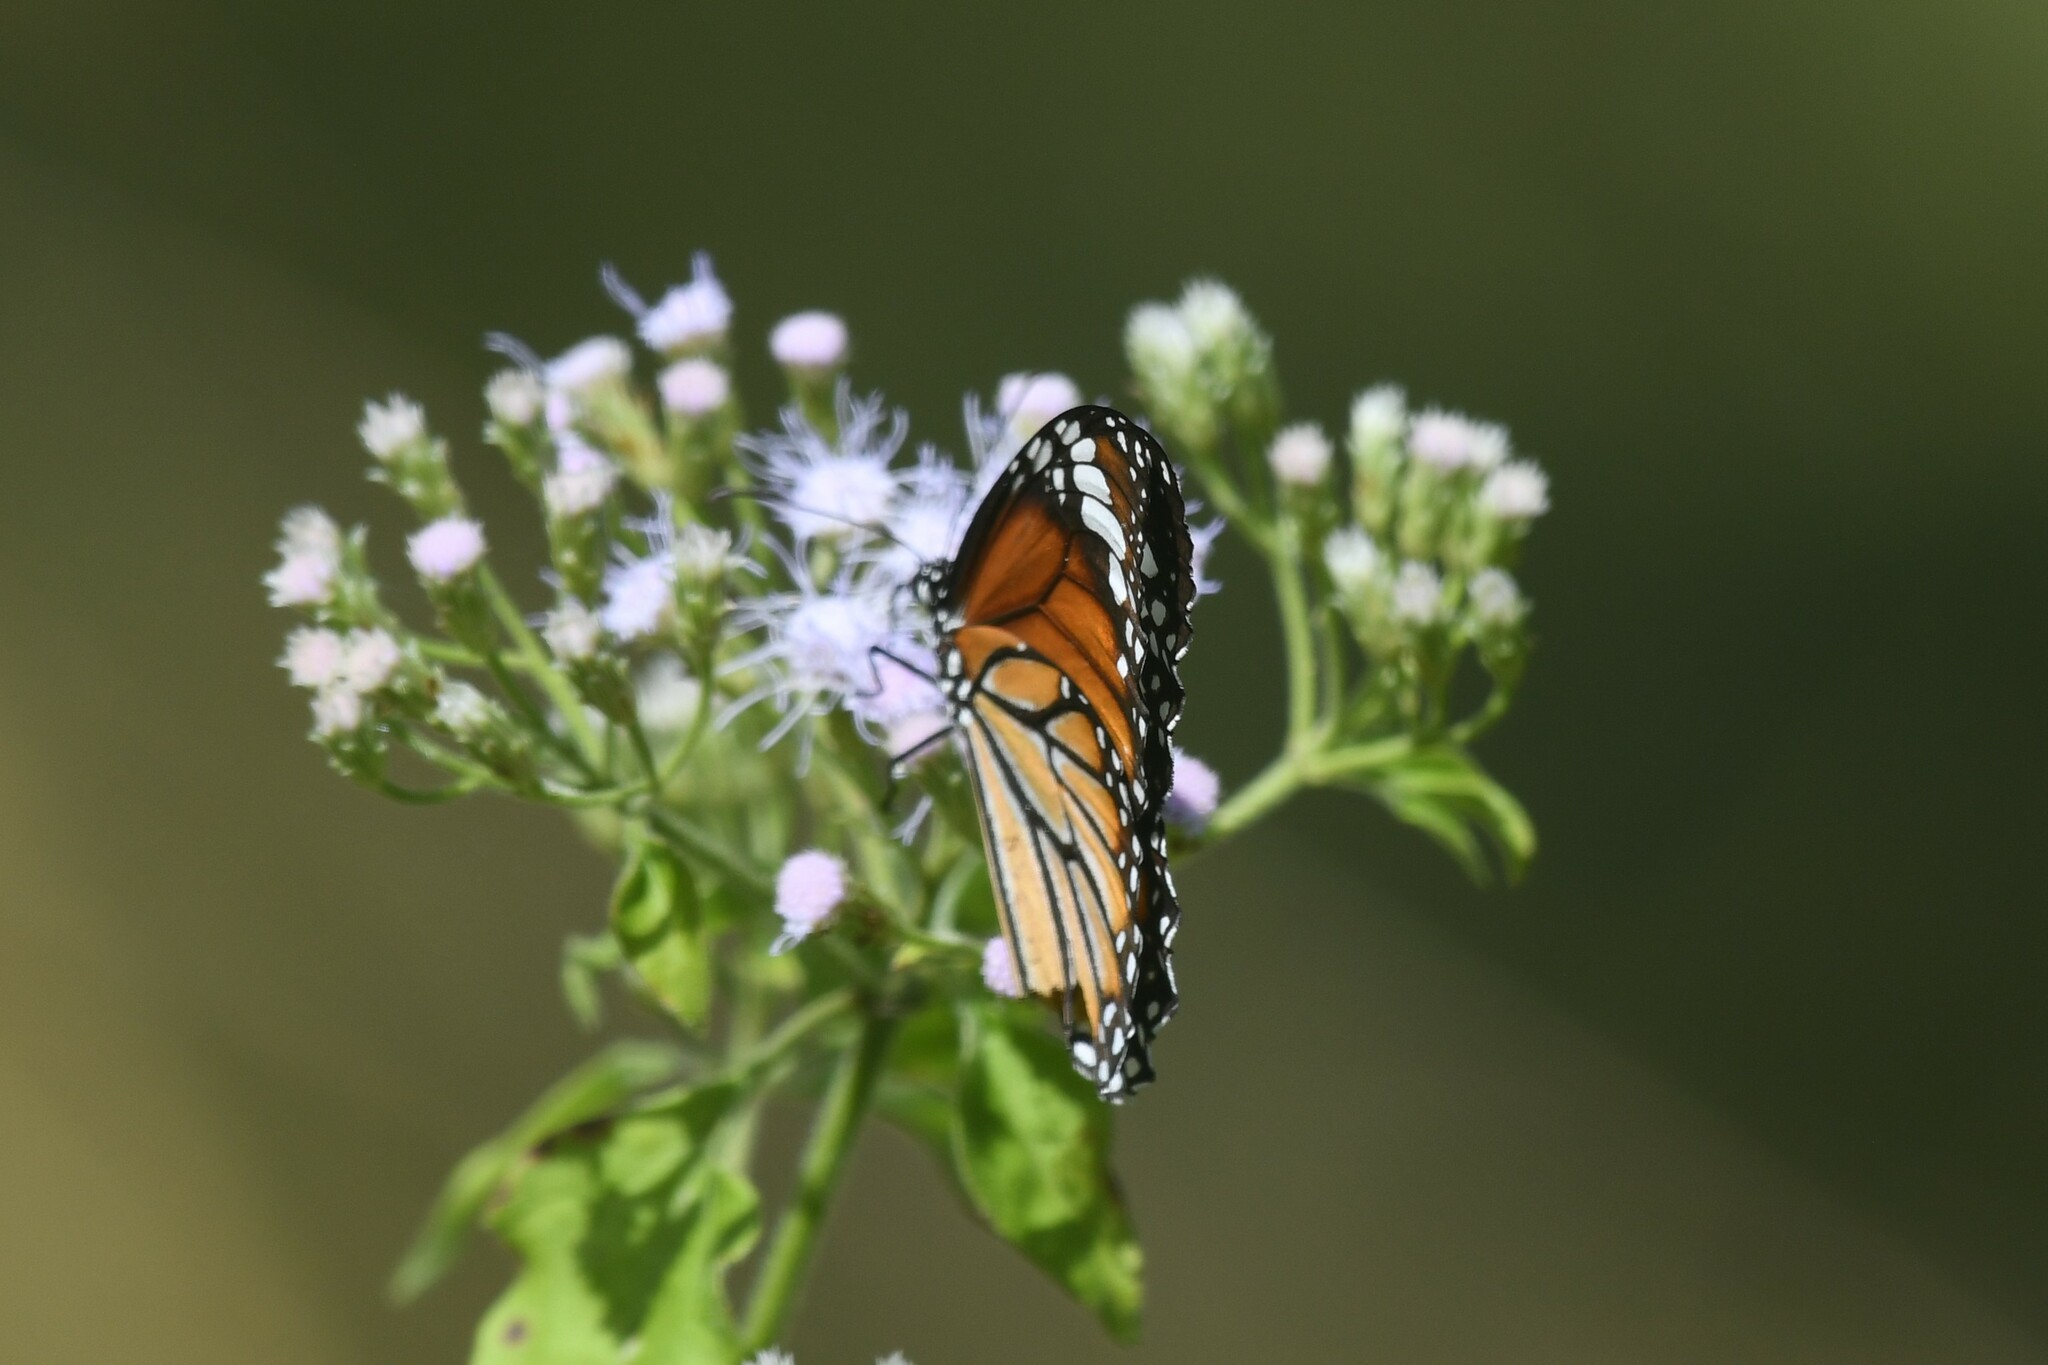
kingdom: Animalia
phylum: Arthropoda
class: Insecta
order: Lepidoptera
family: Nymphalidae
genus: Danaus
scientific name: Danaus genutia
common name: Common tiger butterfly
